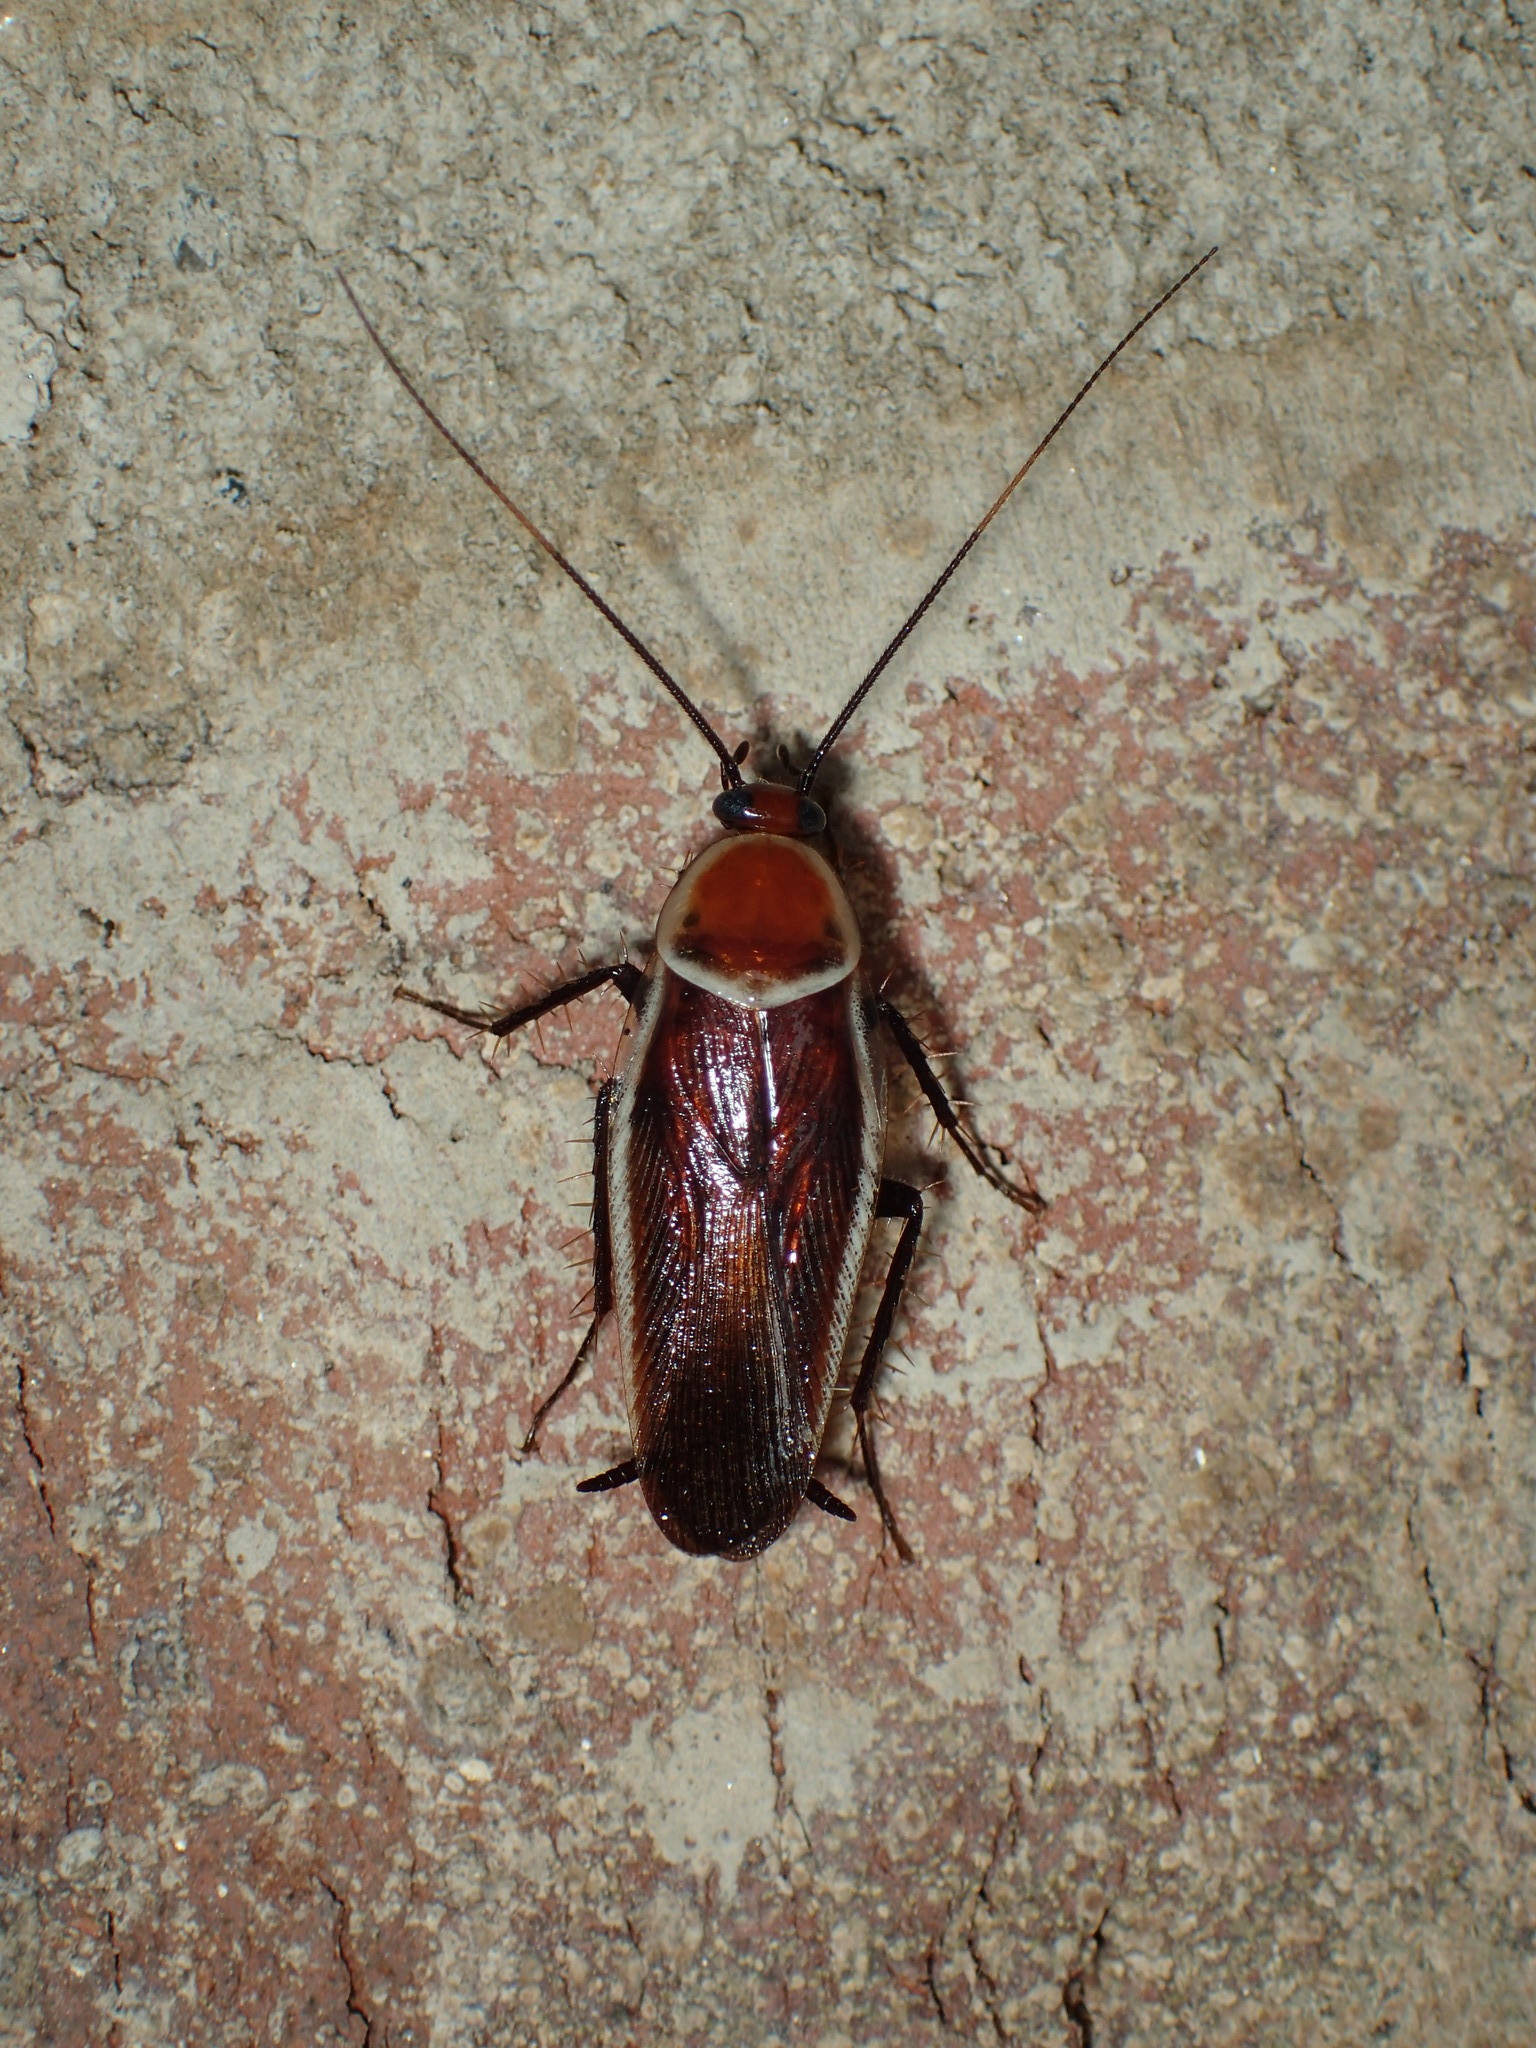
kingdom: Animalia
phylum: Arthropoda
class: Insecta
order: Blattodea
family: Ectobiidae
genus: Pseudomops
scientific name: Pseudomops septentrionalis
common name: Pale-bordered field cockroach
